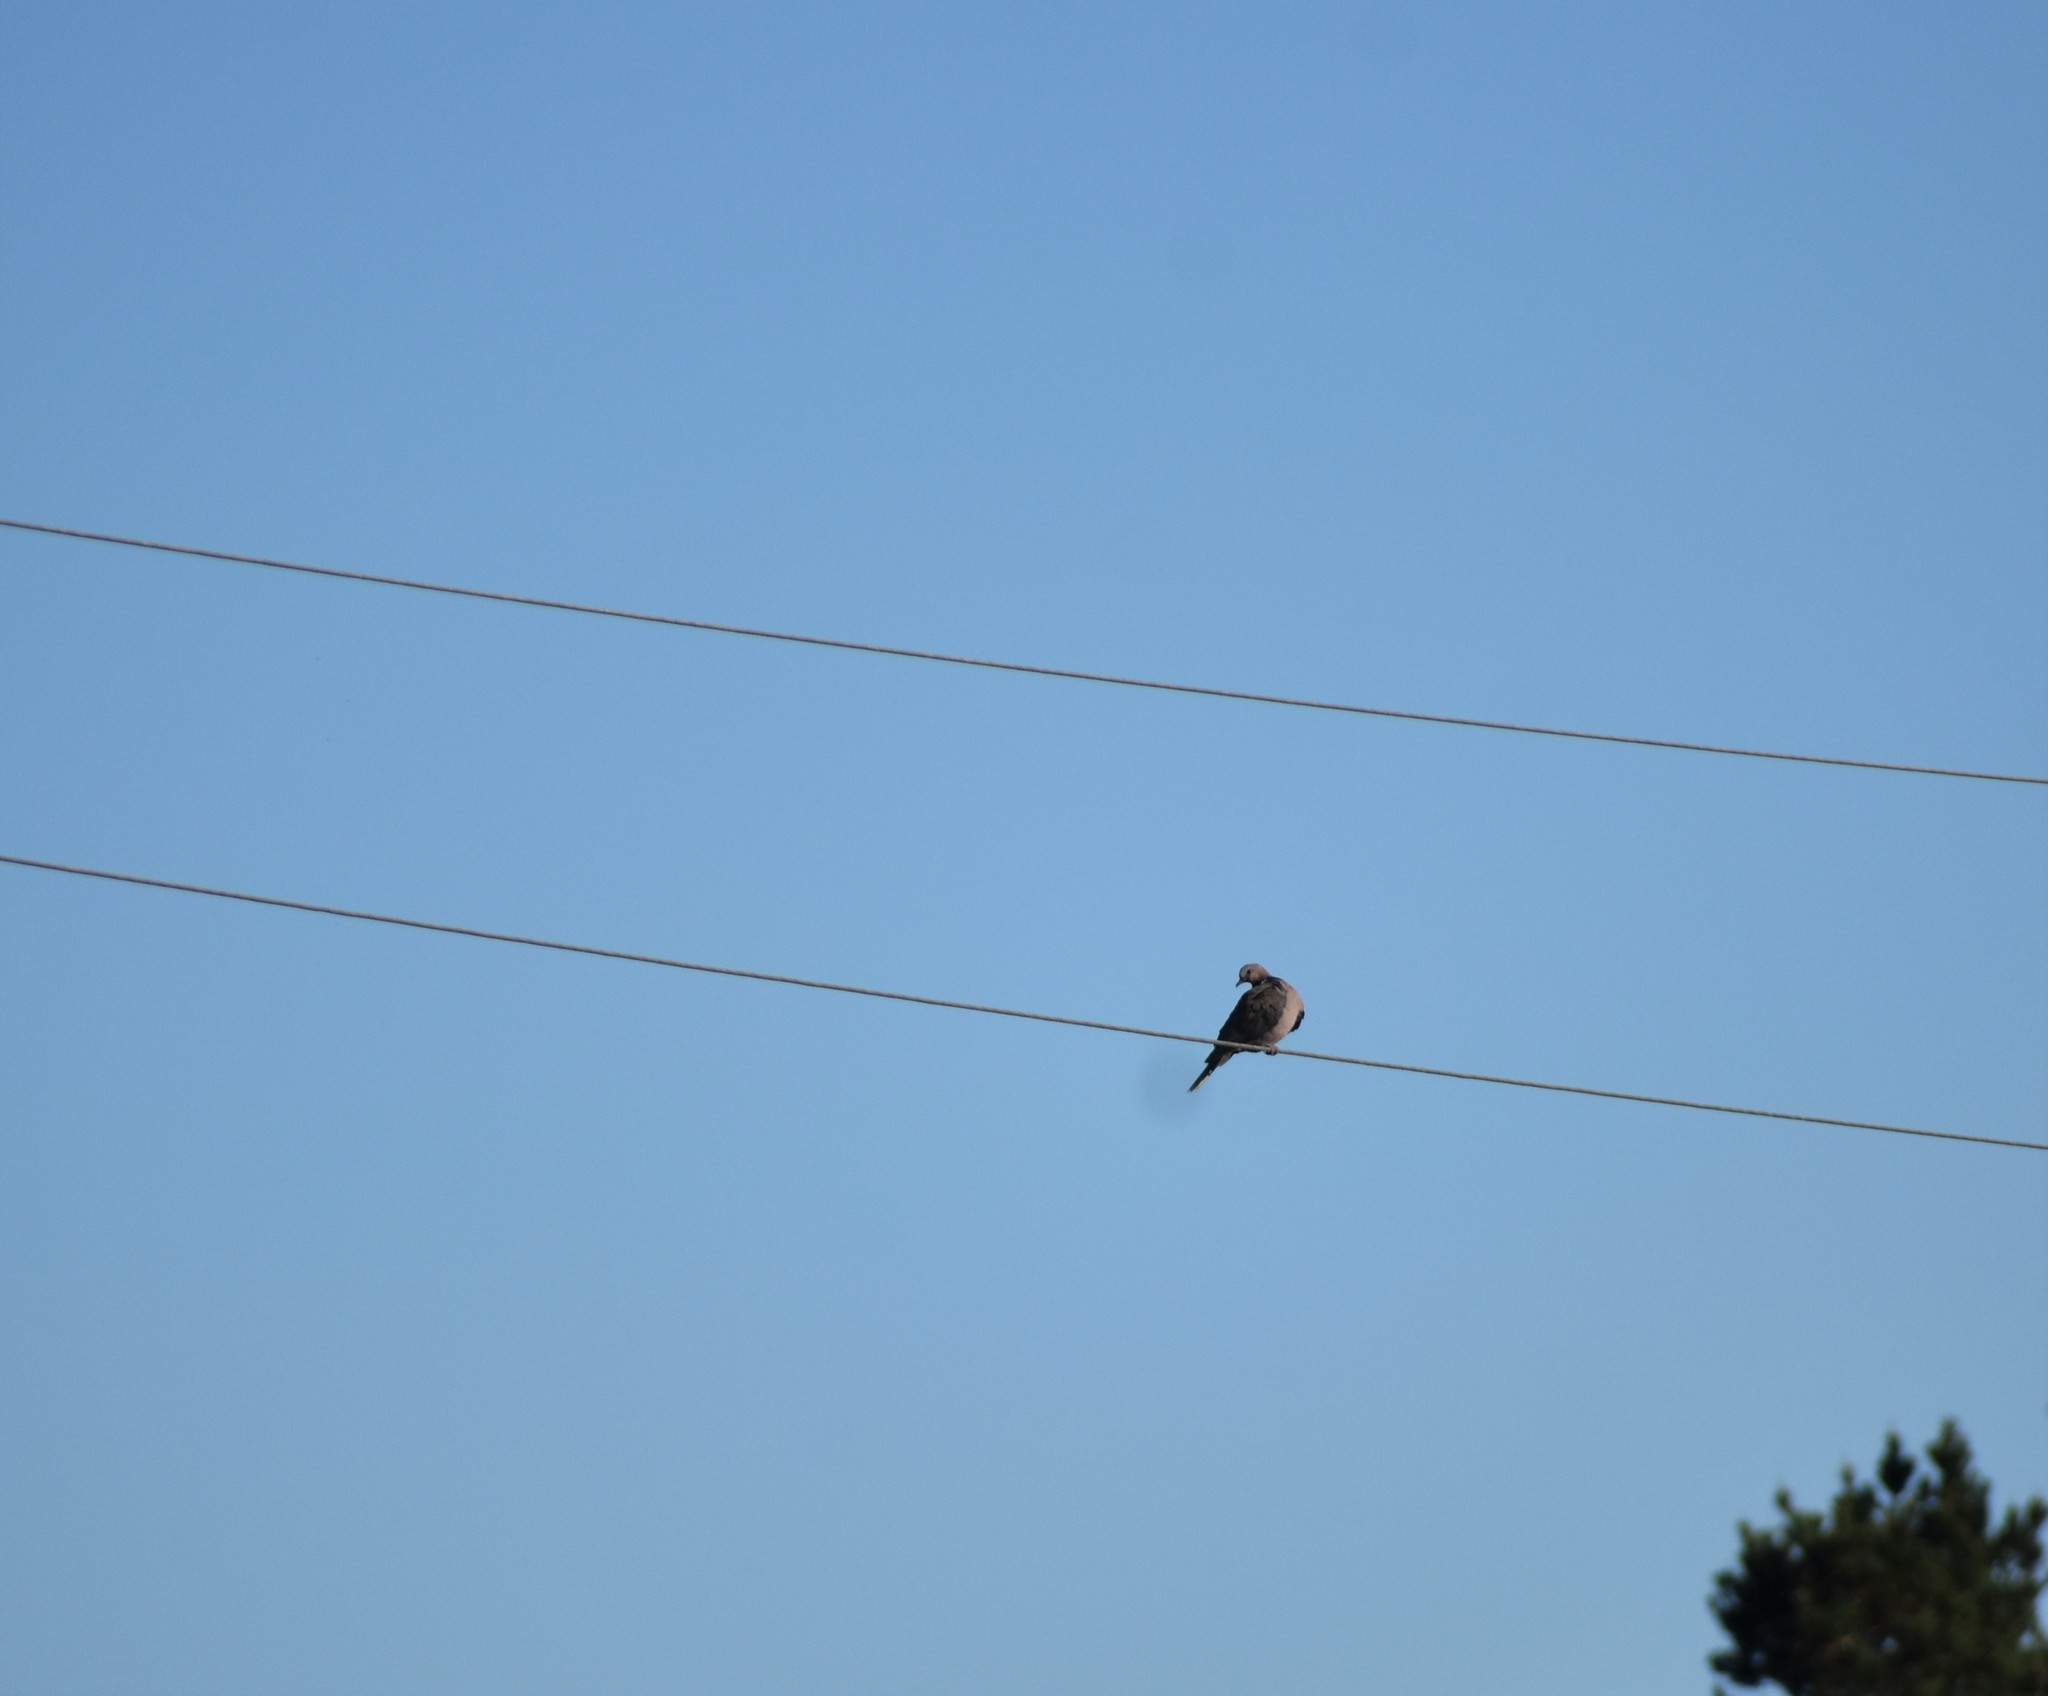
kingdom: Animalia
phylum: Chordata
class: Aves
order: Columbiformes
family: Columbidae
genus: Streptopelia
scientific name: Streptopelia capicola
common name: Ring-necked dove
